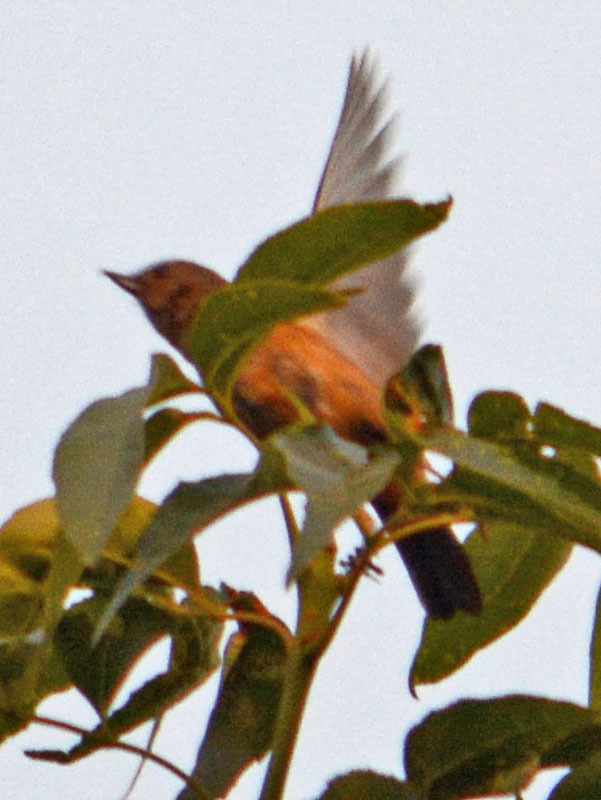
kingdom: Animalia
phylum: Chordata
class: Aves
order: Passeriformes
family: Thraupidae
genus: Diglossa
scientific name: Diglossa baritula
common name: Cinnamon-bellied flowerpiercer
